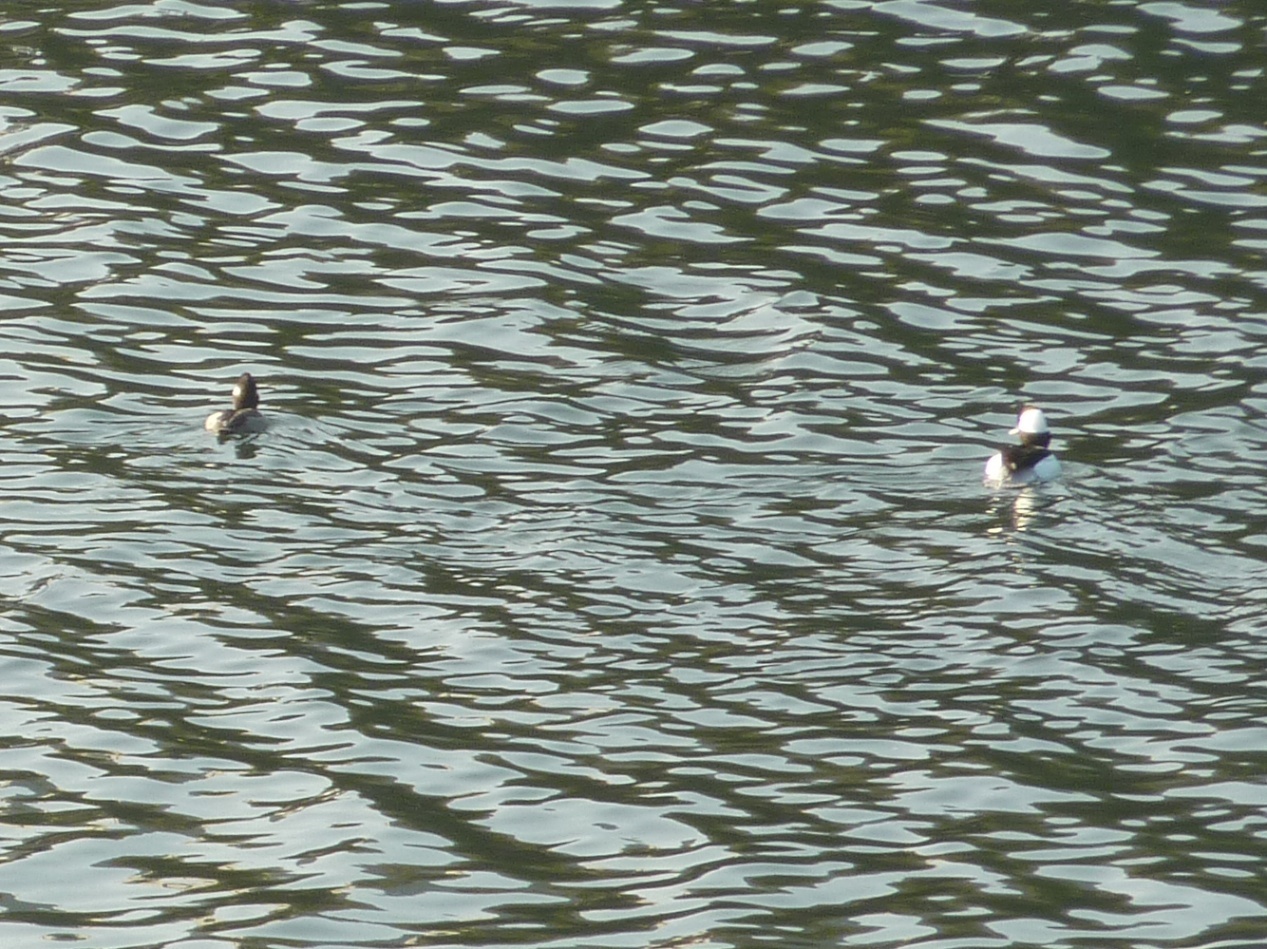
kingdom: Animalia
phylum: Chordata
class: Aves
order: Anseriformes
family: Anatidae
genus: Bucephala
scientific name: Bucephala albeola
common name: Bufflehead
